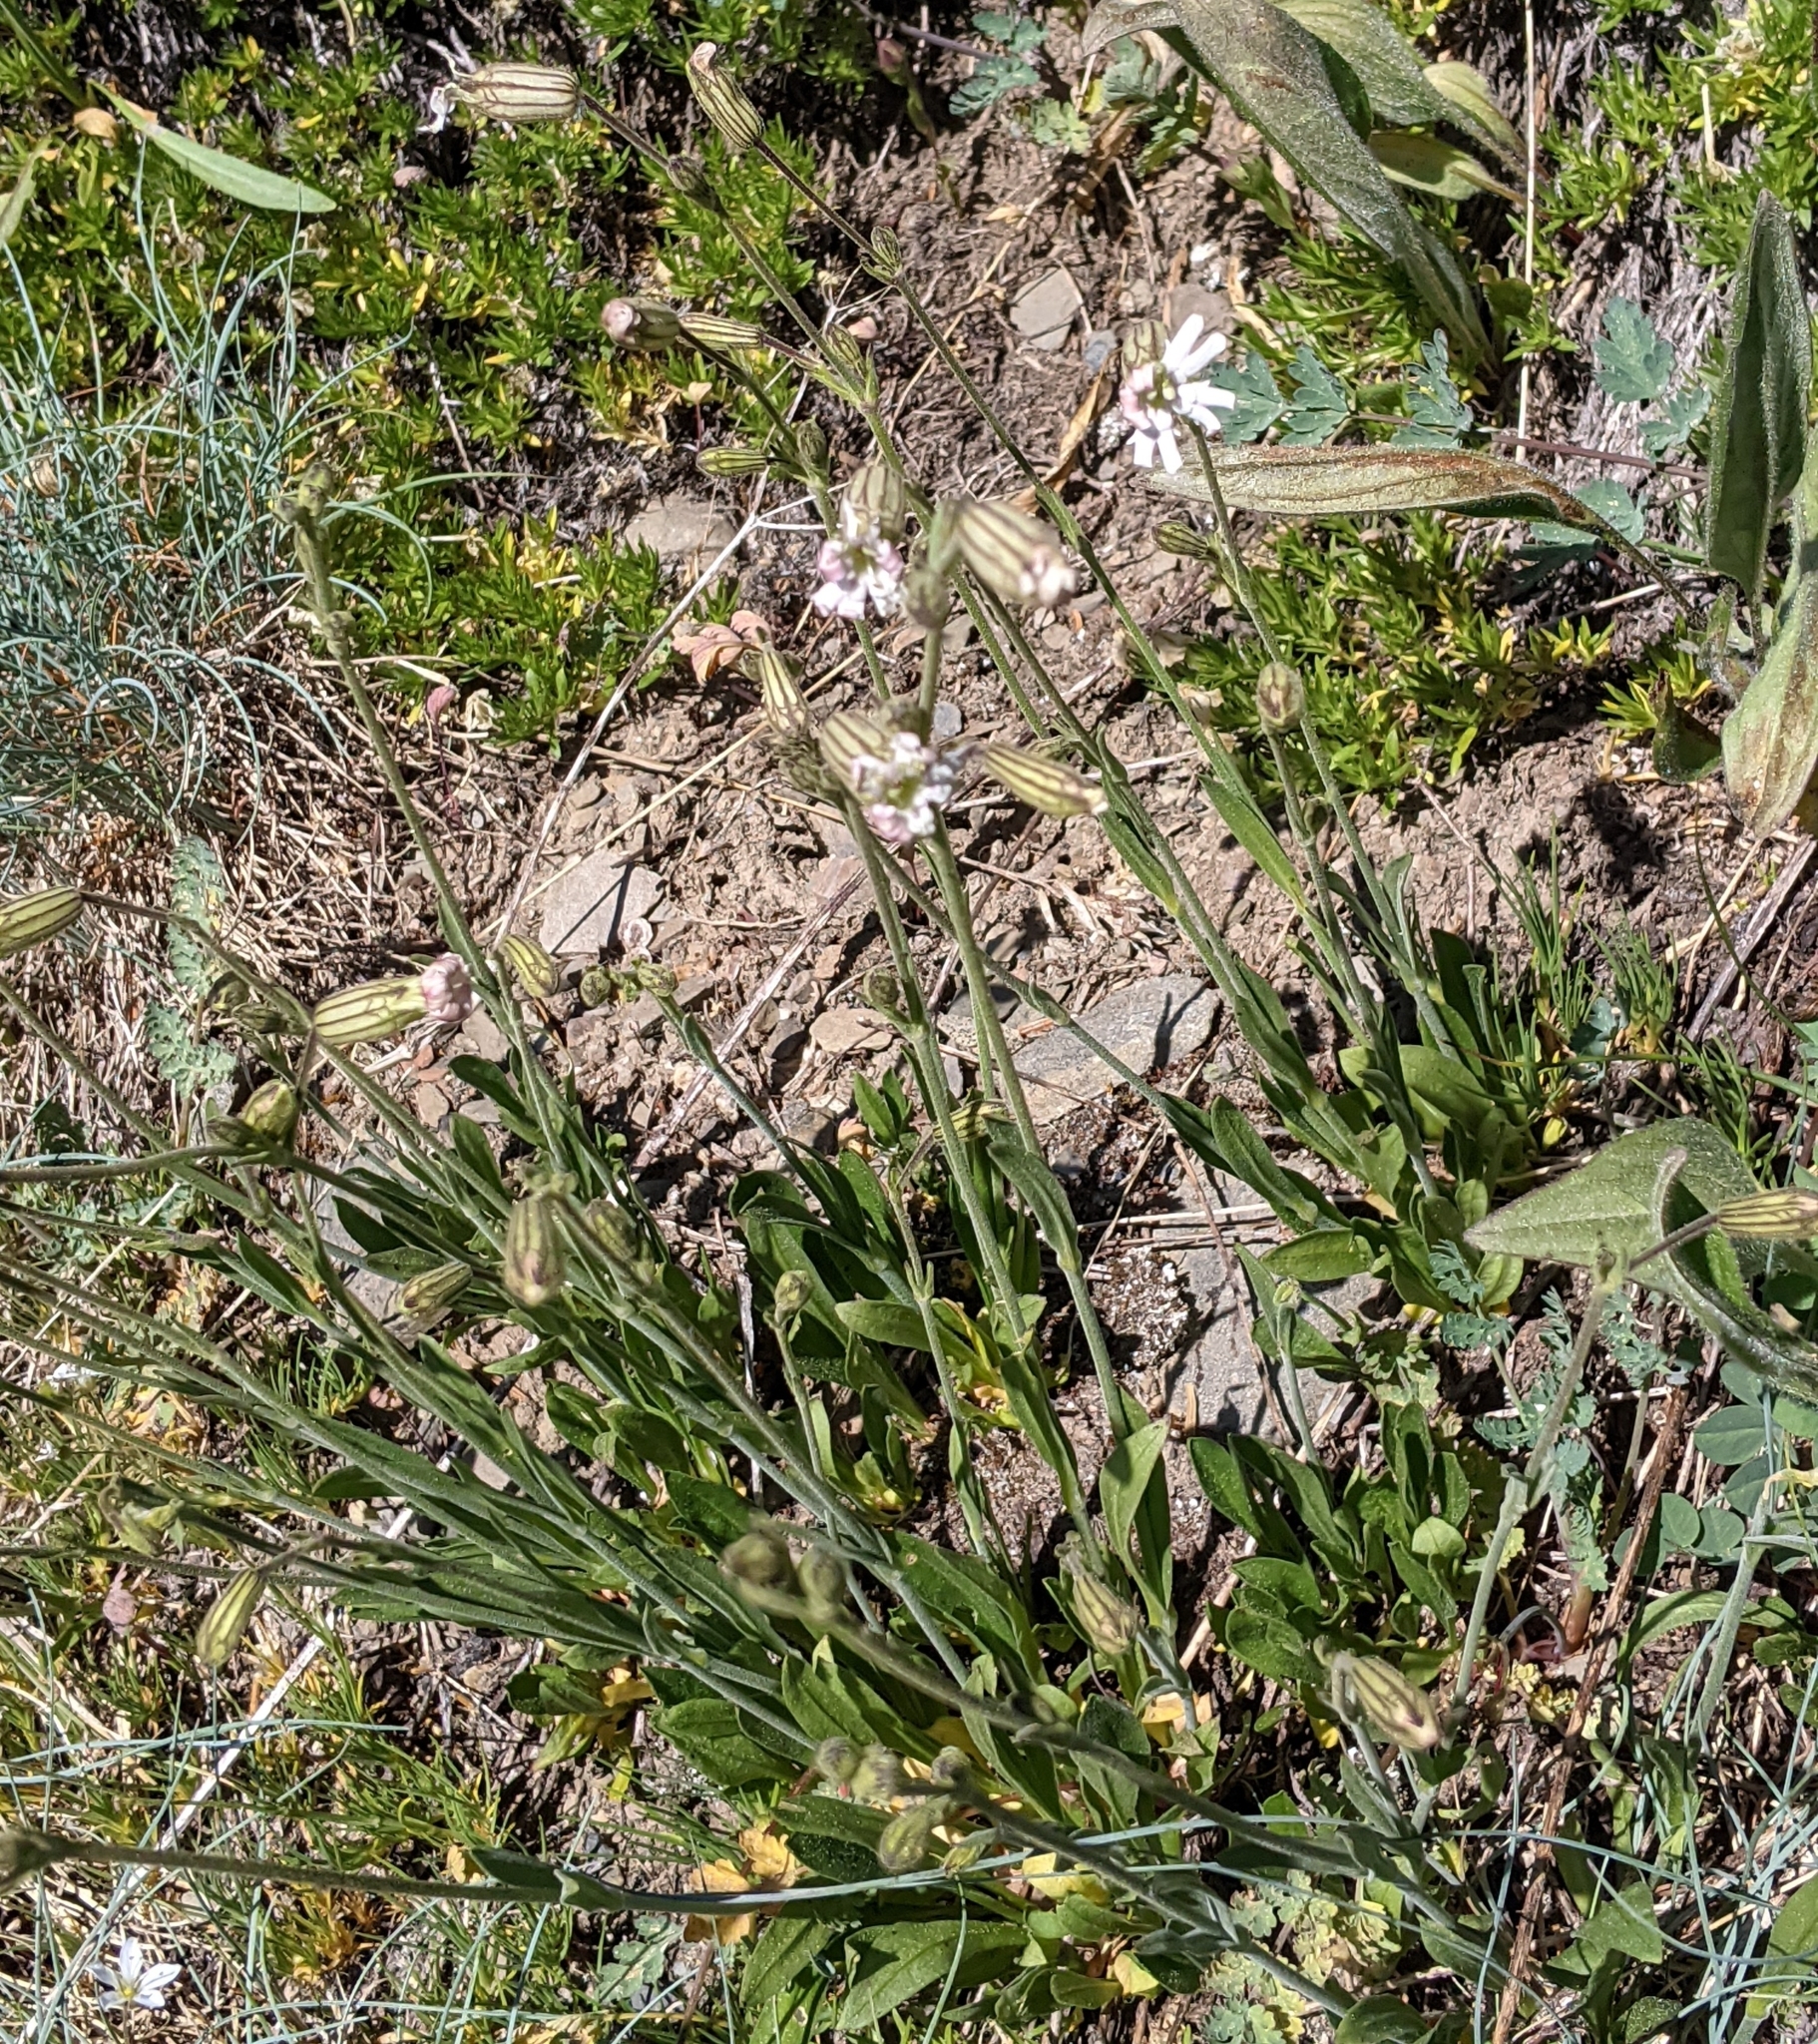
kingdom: Plantae
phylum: Tracheophyta
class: Magnoliopsida
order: Caryophyllales
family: Caryophyllaceae
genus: Silene
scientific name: Silene parryi
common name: Parry's campion
